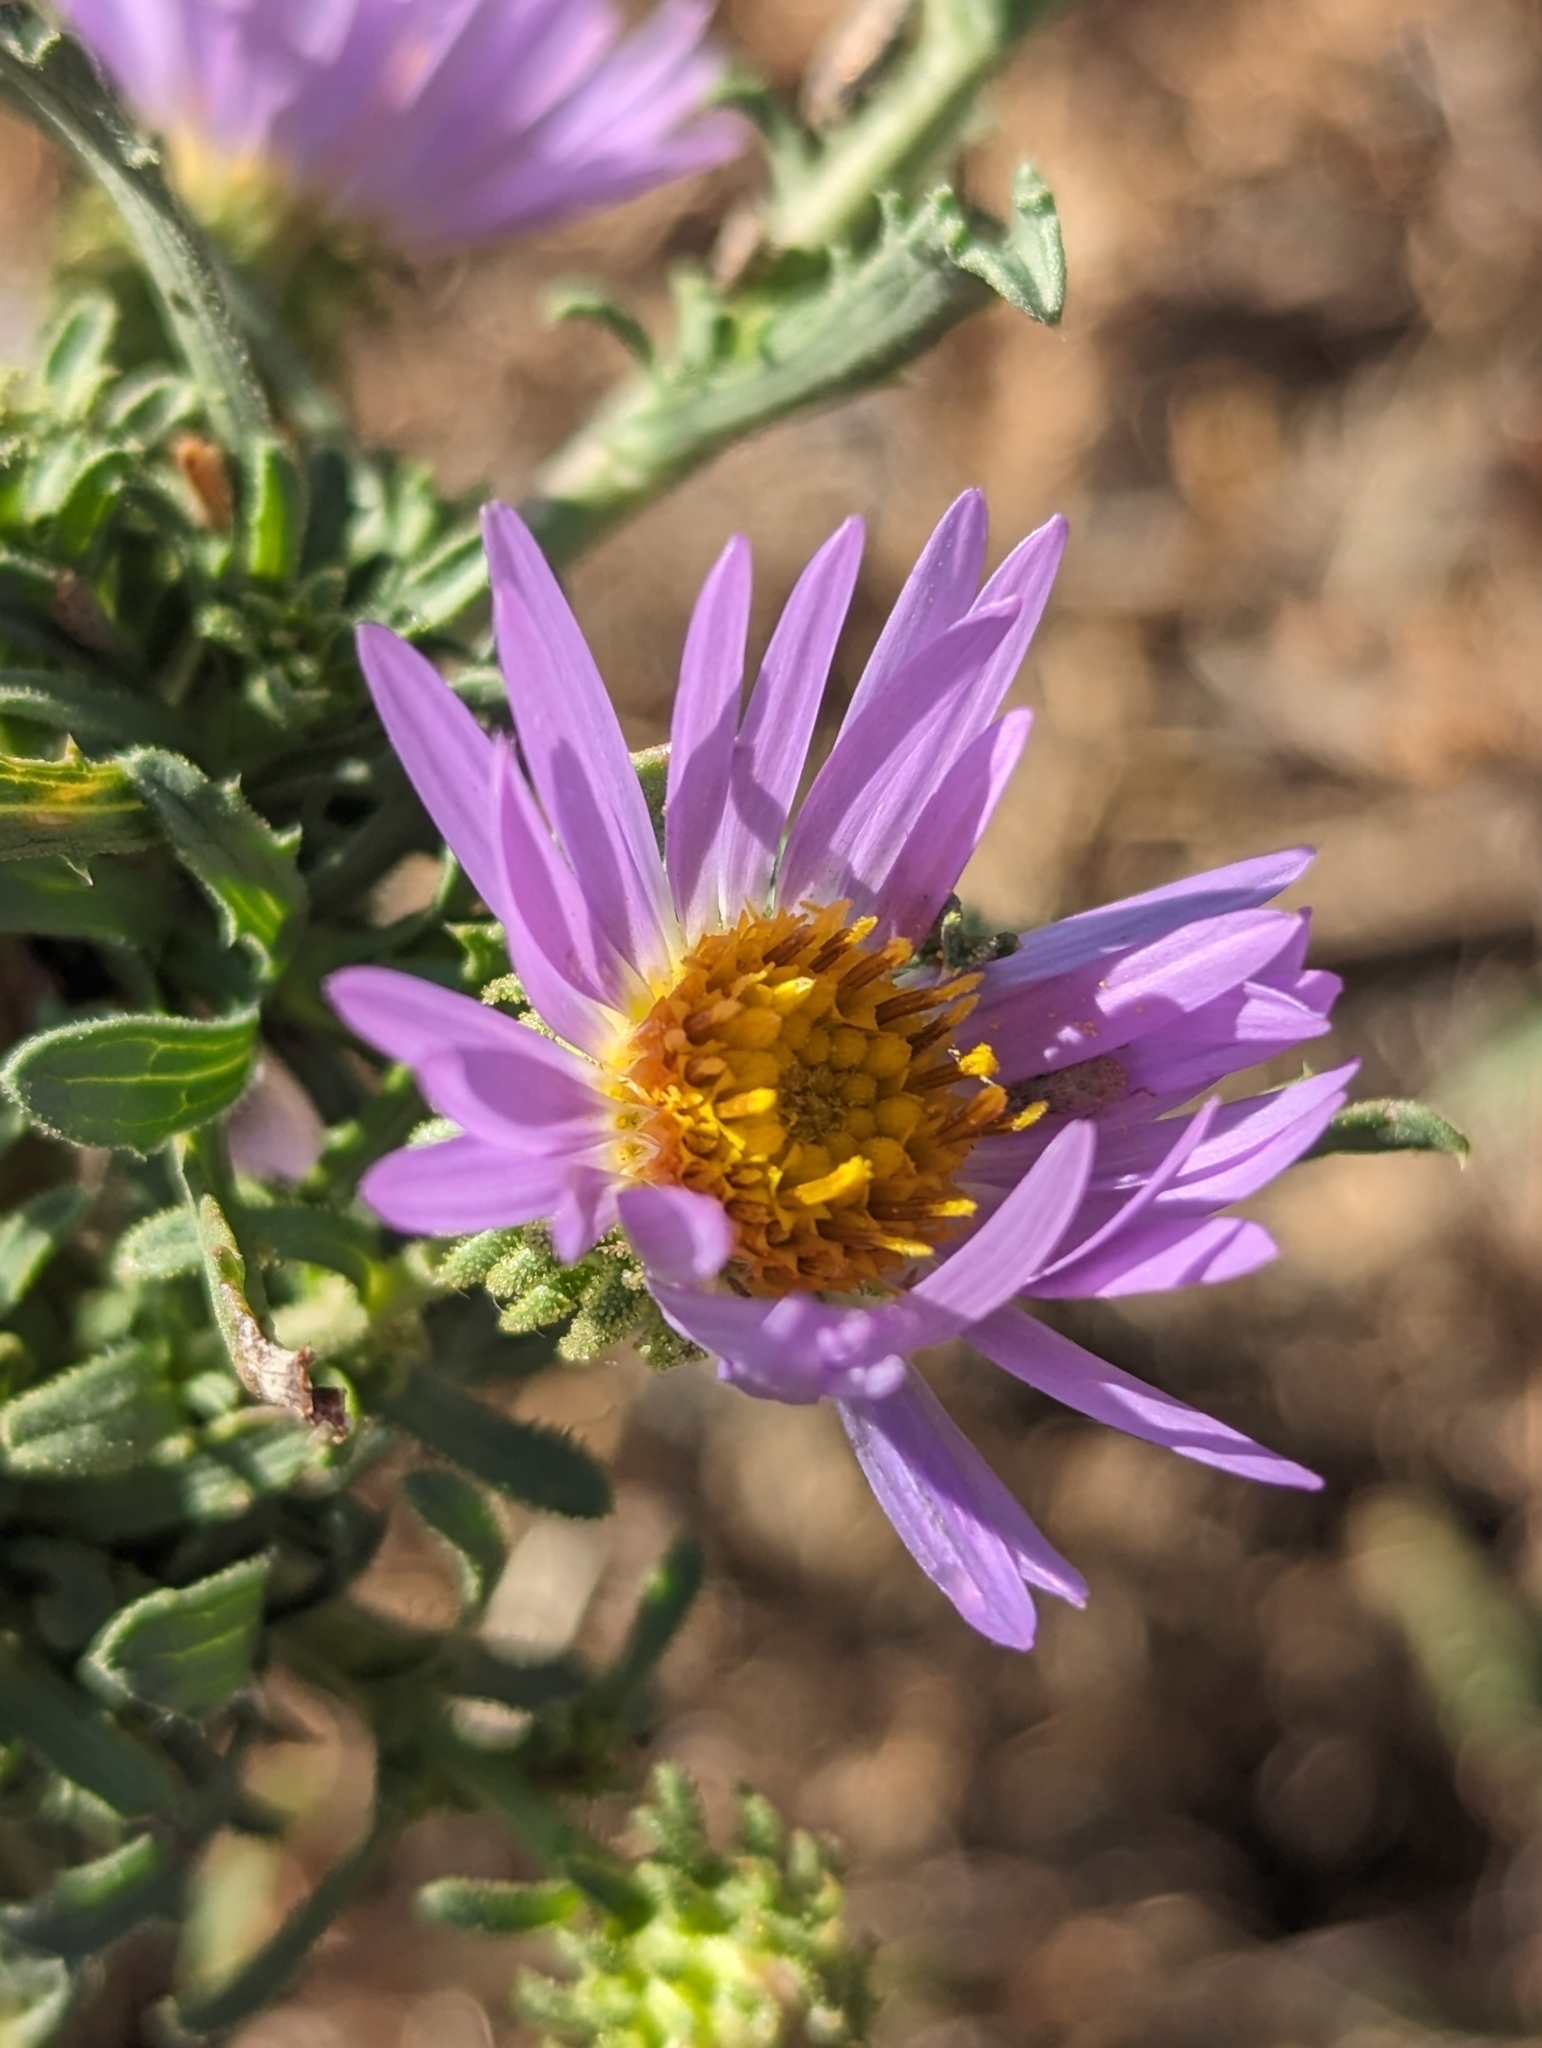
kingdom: Plantae
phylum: Tracheophyta
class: Magnoliopsida
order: Asterales
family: Asteraceae
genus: Machaeranthera
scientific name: Machaeranthera tanacetifolia
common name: Tansy-aster
